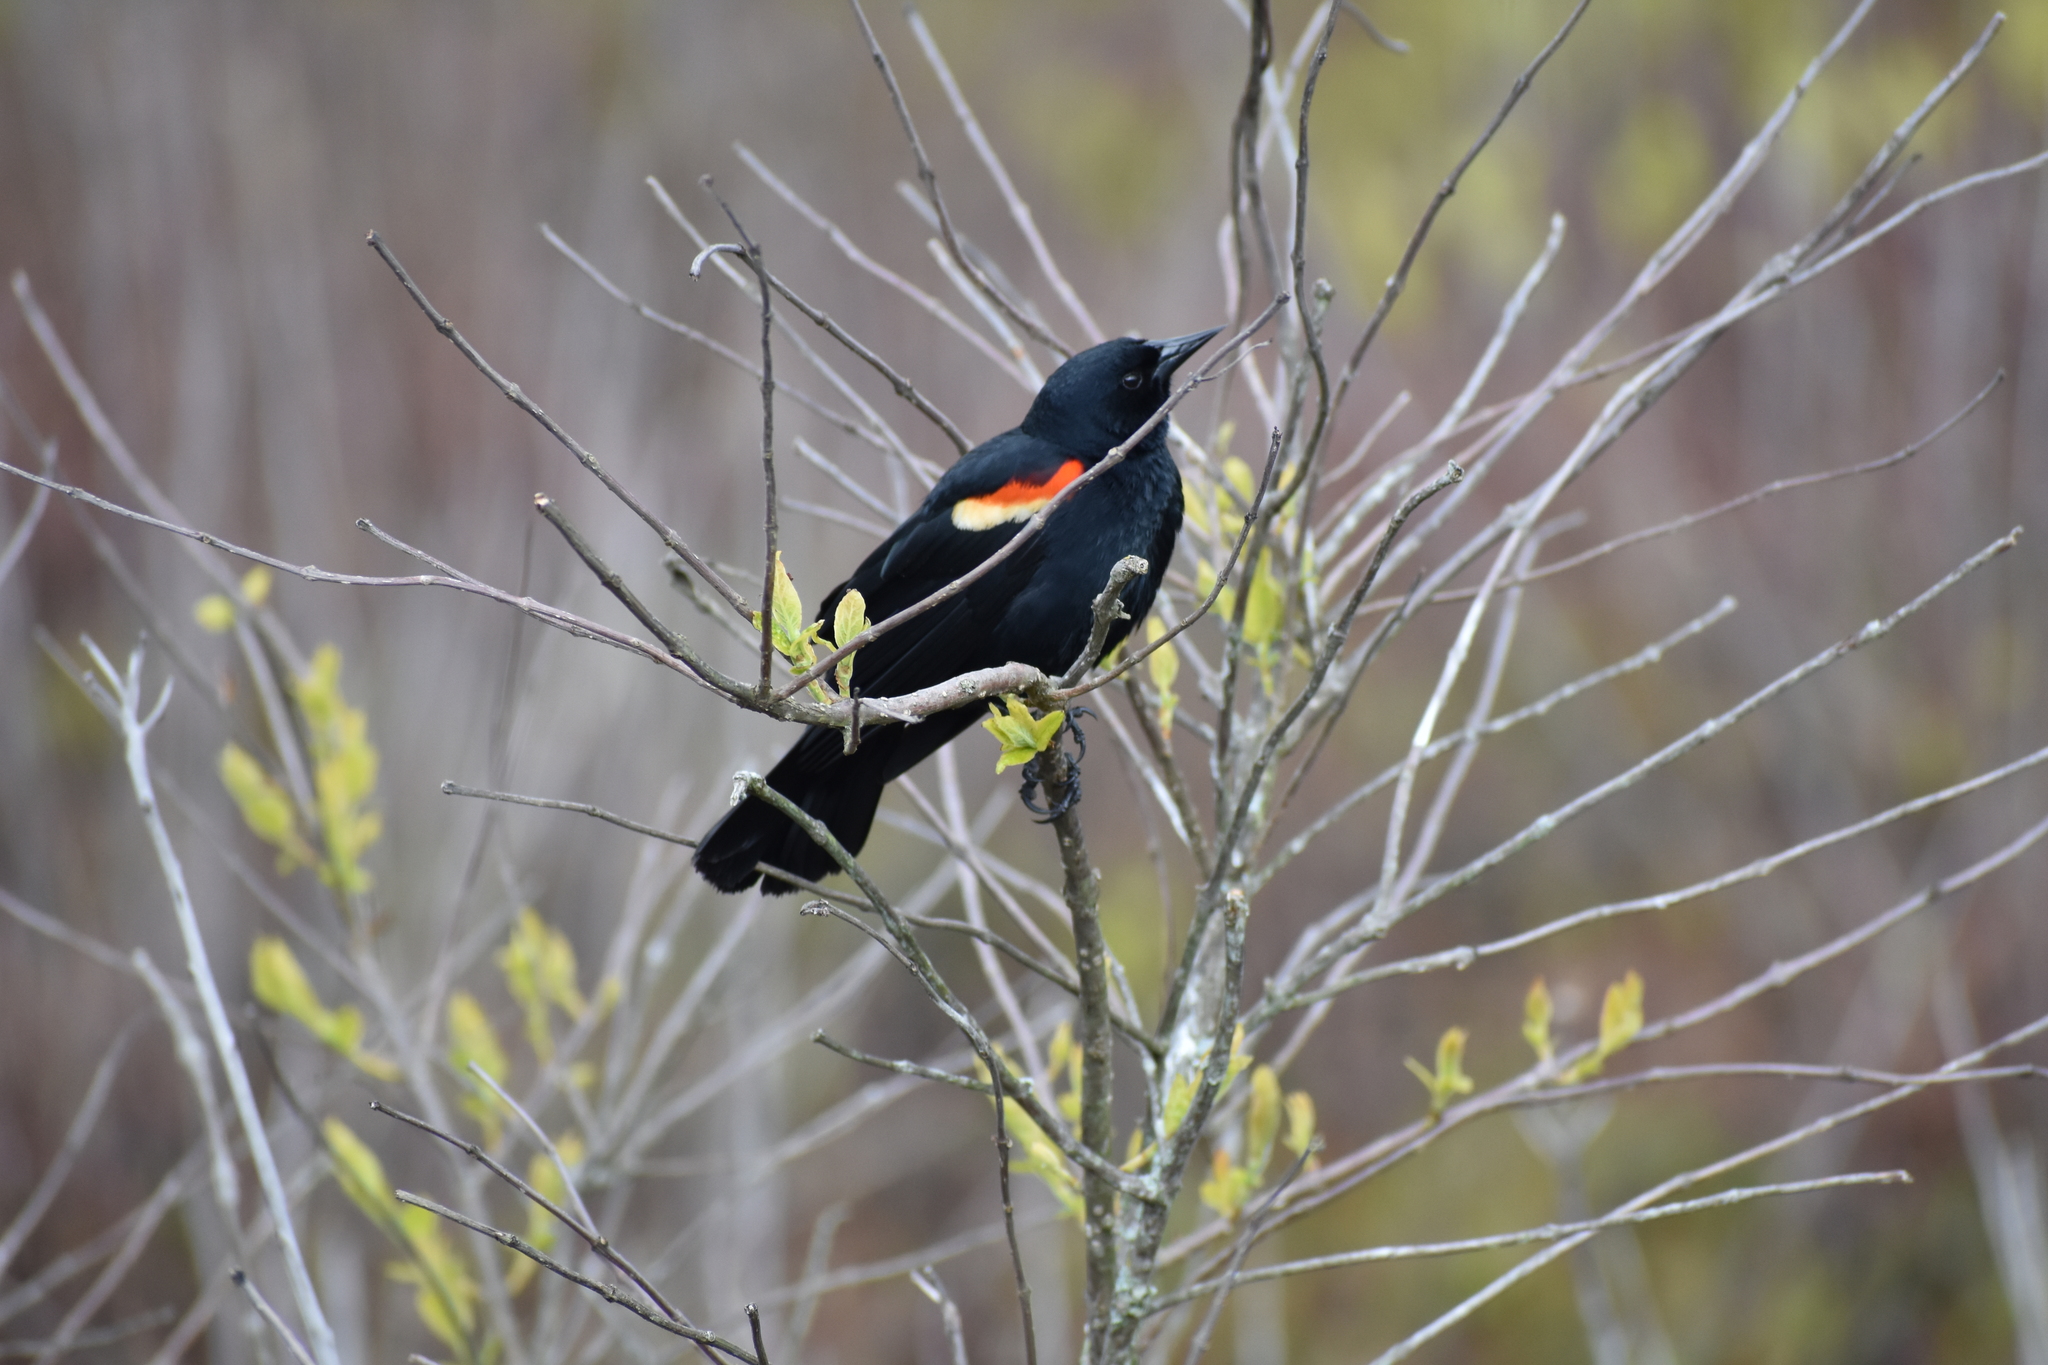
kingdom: Animalia
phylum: Chordata
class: Aves
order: Passeriformes
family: Icteridae
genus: Agelaius
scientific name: Agelaius phoeniceus
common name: Red-winged blackbird
